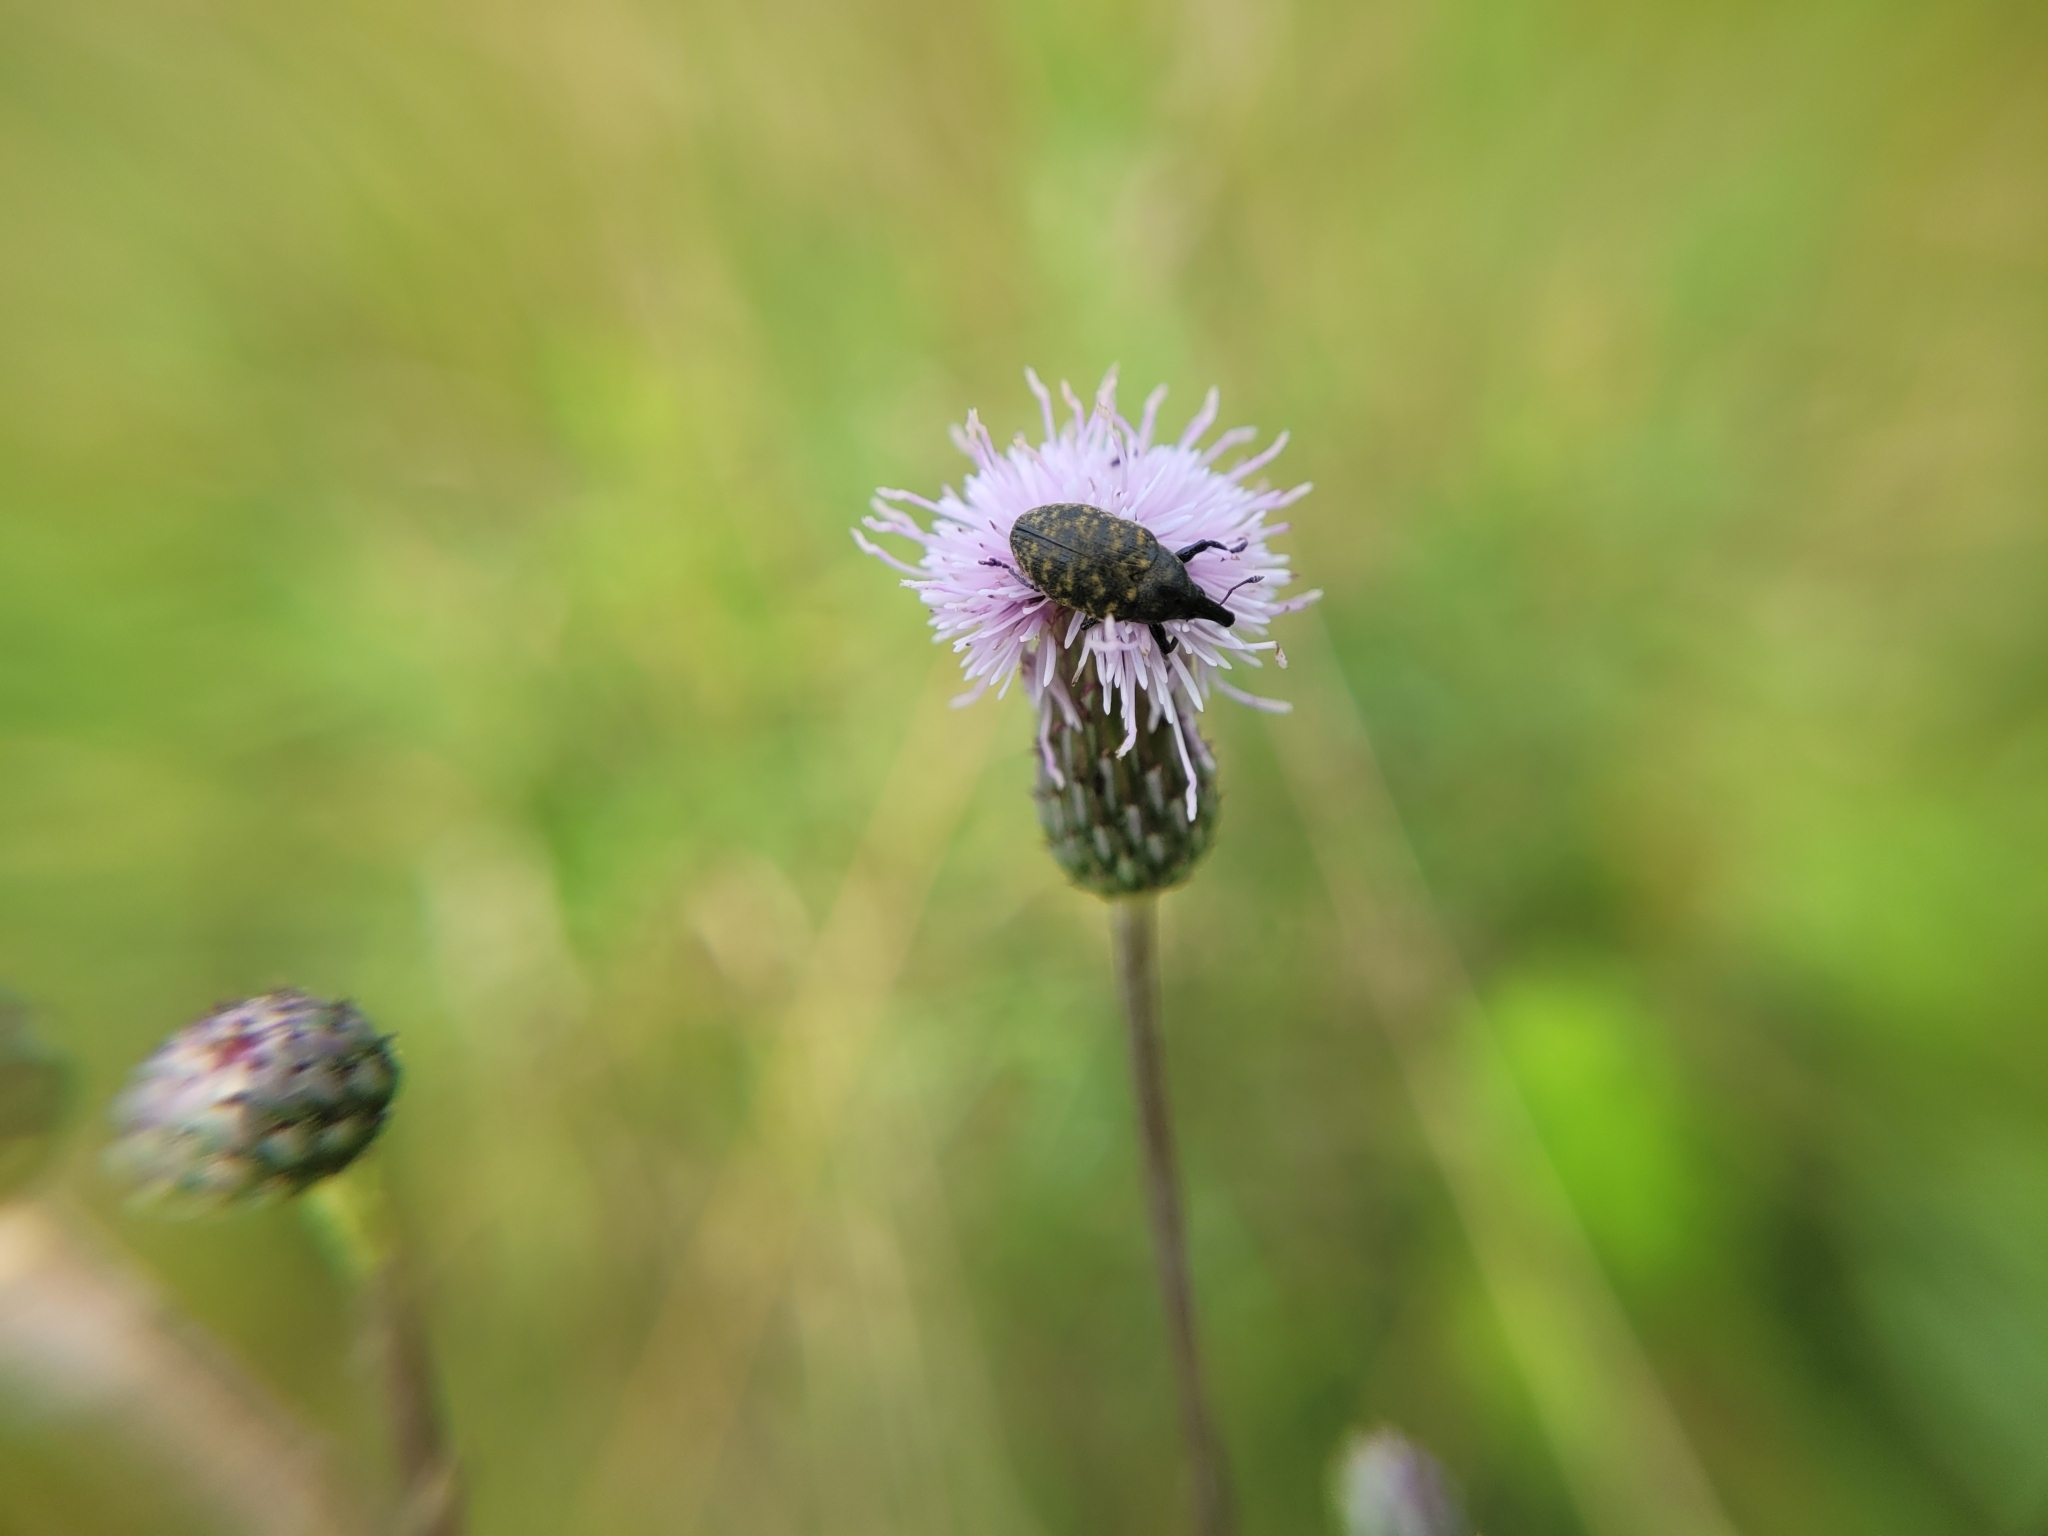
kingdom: Animalia
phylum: Arthropoda
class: Insecta
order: Coleoptera
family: Curculionidae
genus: Larinus
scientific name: Larinus turbinatus
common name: Weevil
